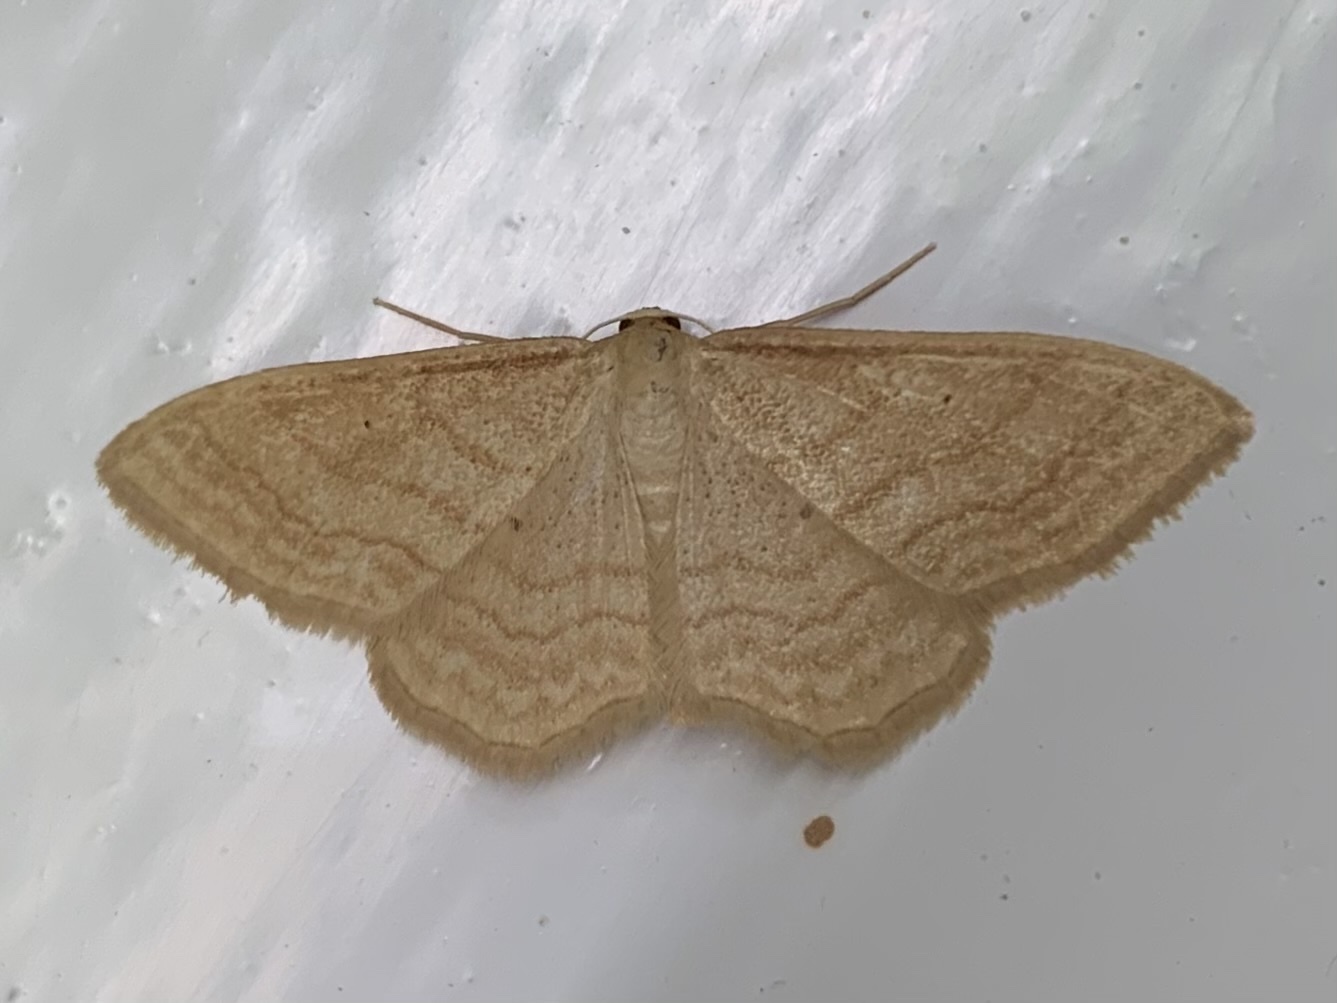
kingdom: Animalia
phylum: Arthropoda
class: Insecta
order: Lepidoptera
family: Geometridae
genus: Idaea
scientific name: Idaea rufaria
